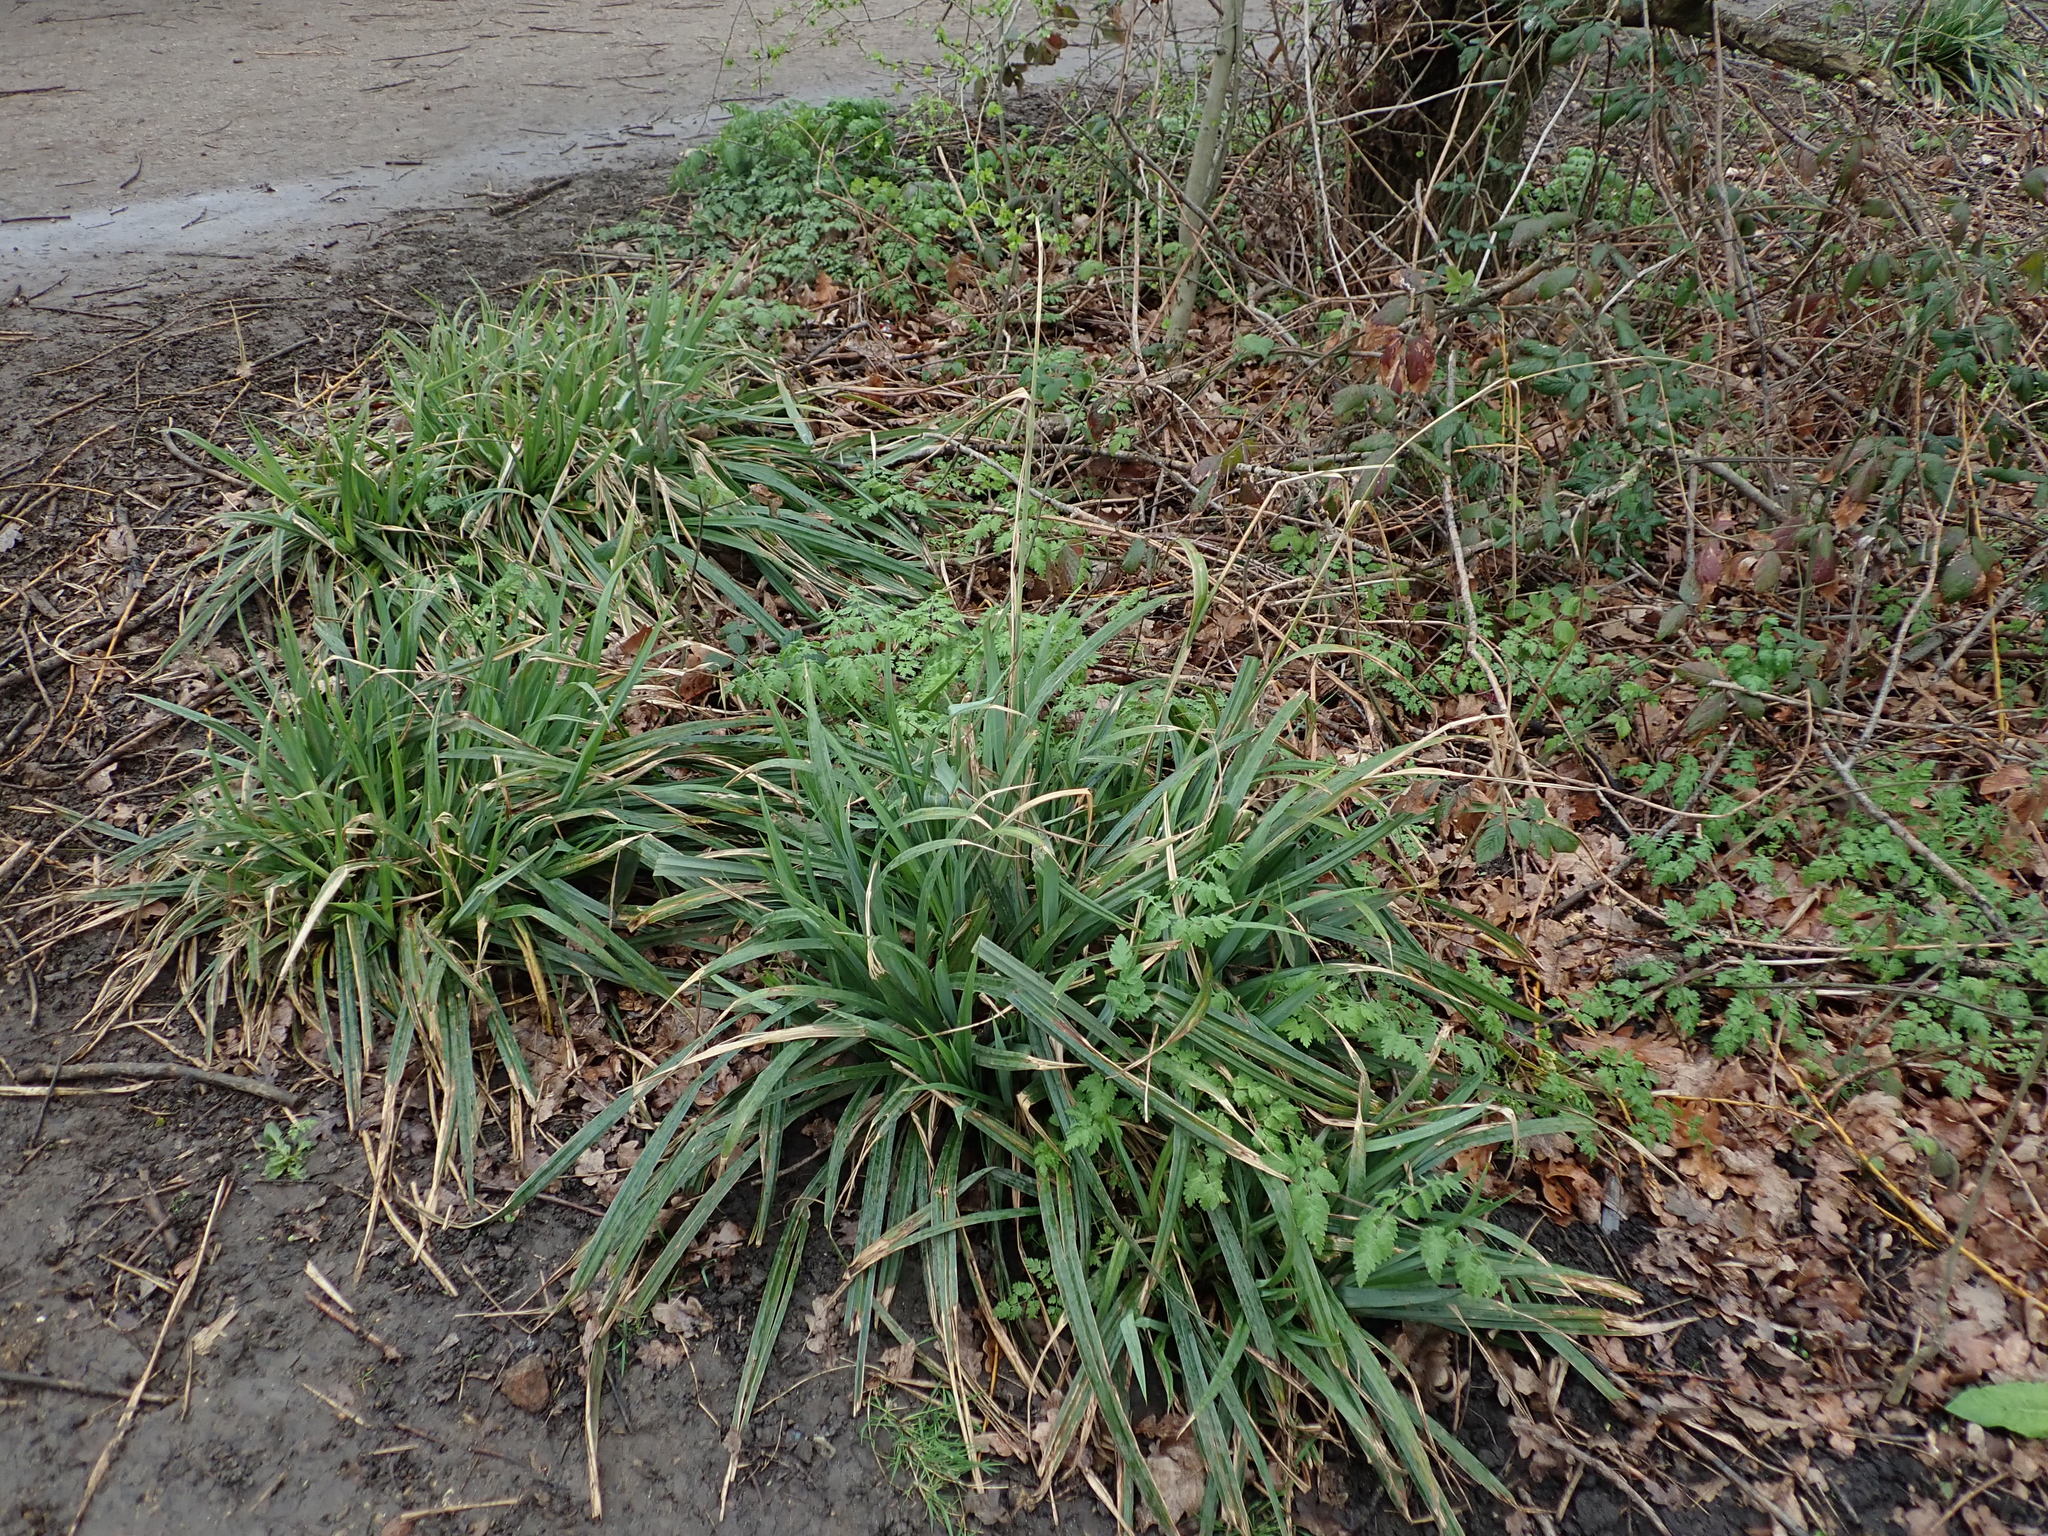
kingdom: Plantae
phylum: Tracheophyta
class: Liliopsida
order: Poales
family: Cyperaceae
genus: Carex
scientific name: Carex pendula
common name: Pendulous sedge
